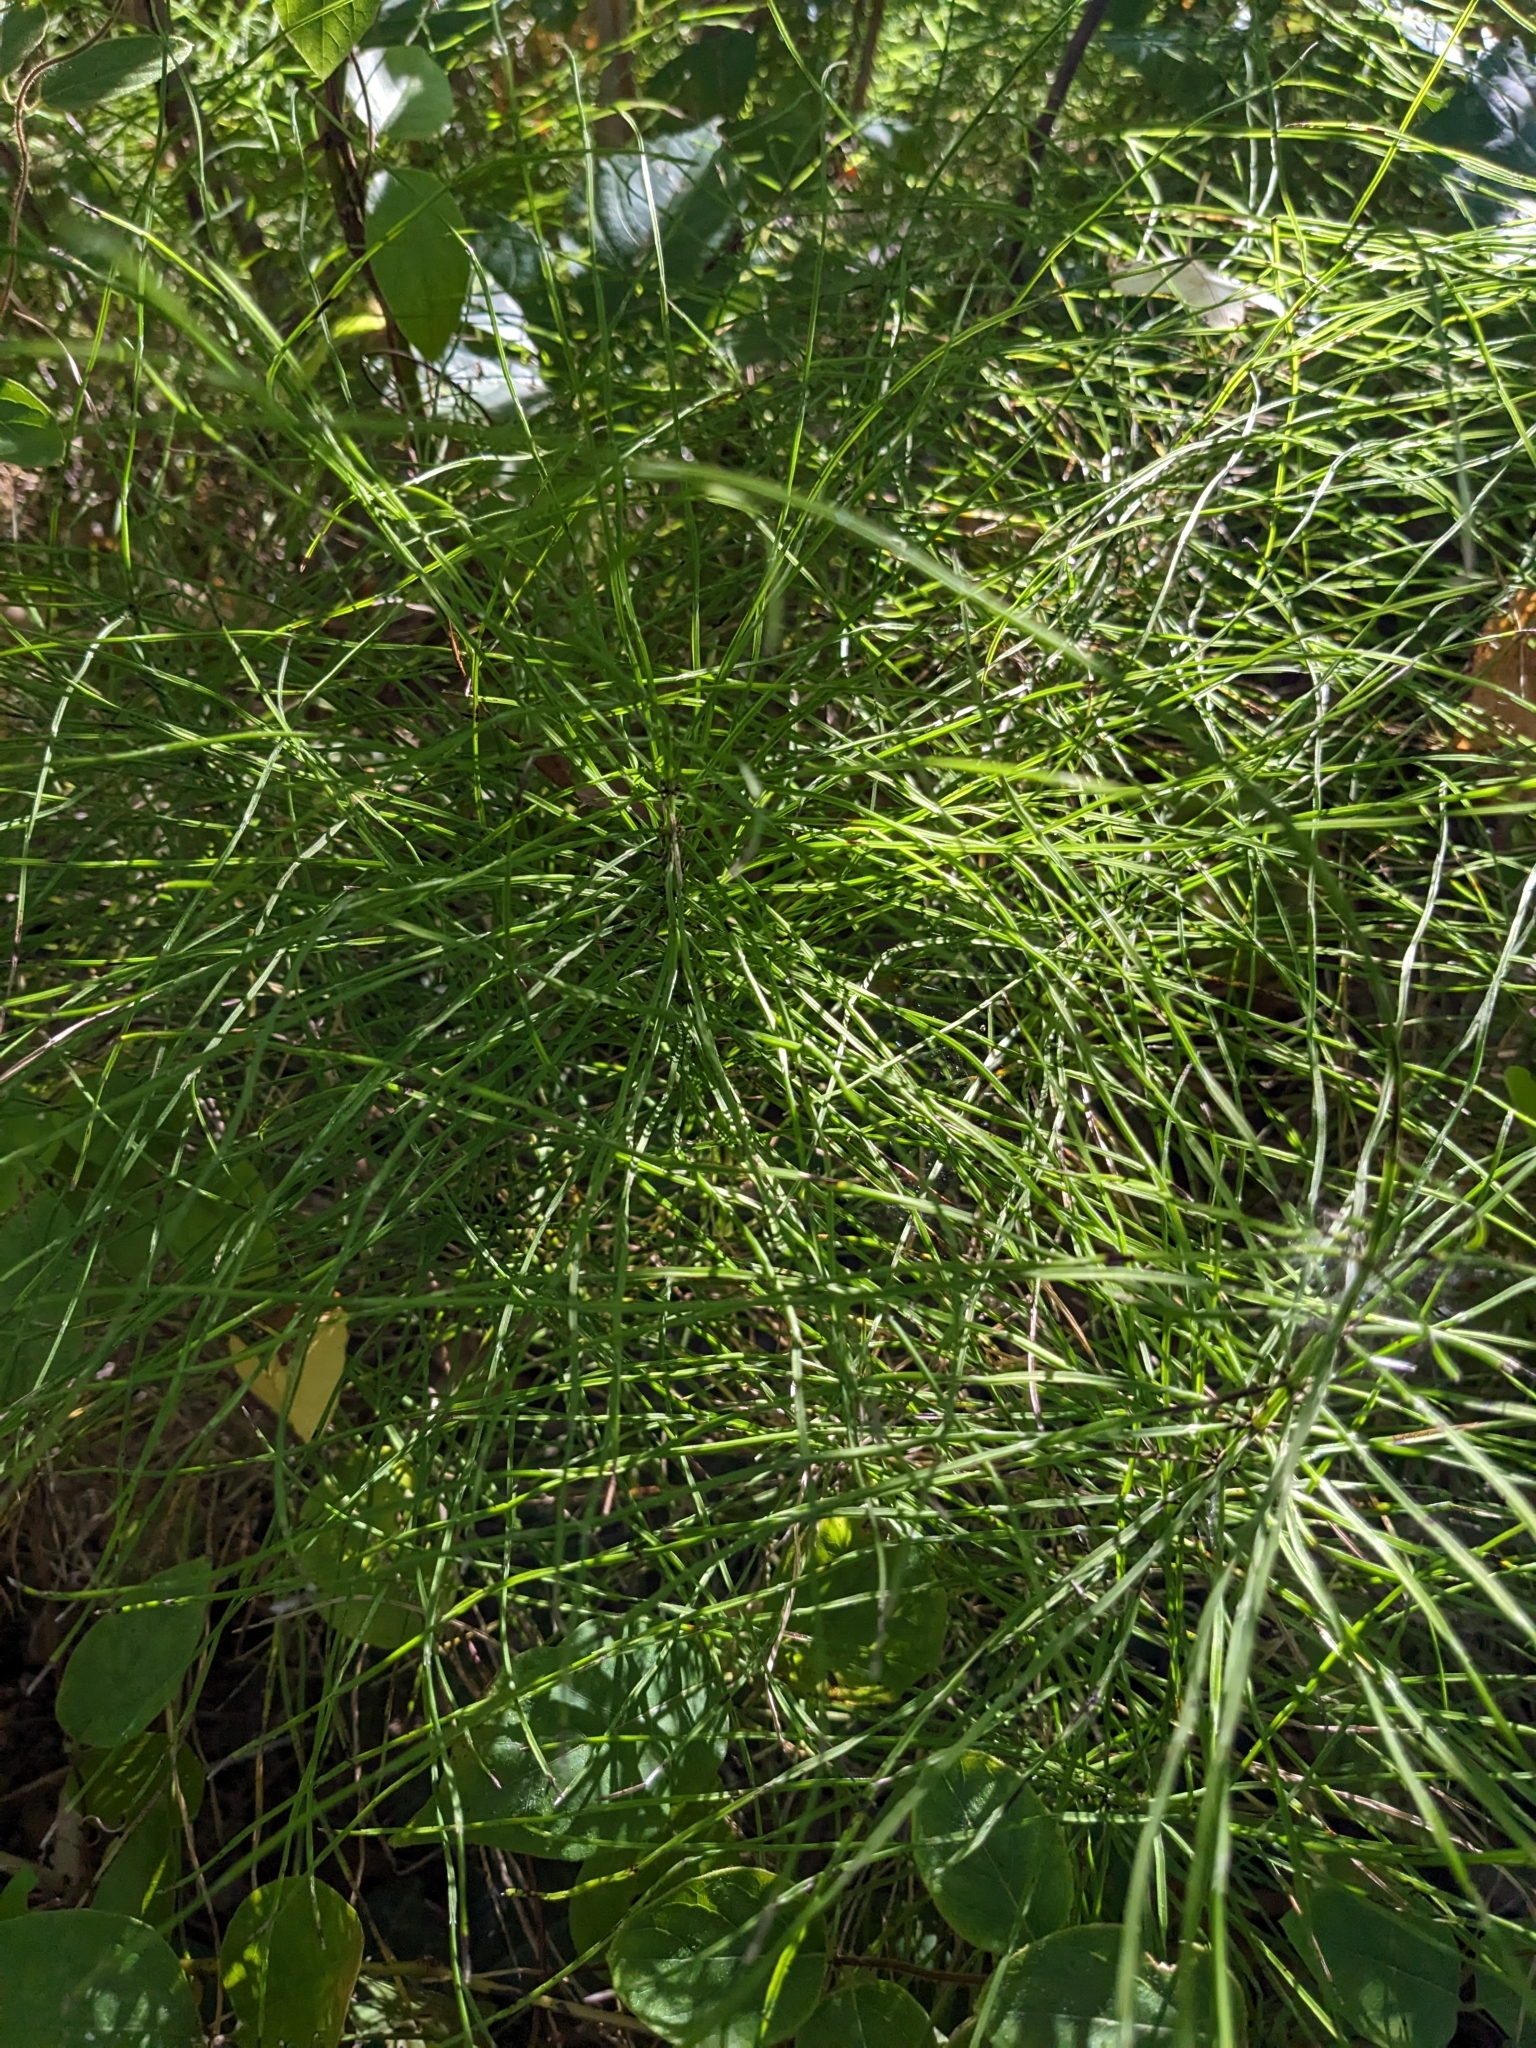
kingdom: Plantae
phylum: Tracheophyta
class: Polypodiopsida
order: Equisetales
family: Equisetaceae
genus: Equisetum
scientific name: Equisetum arvense
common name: Field horsetail
